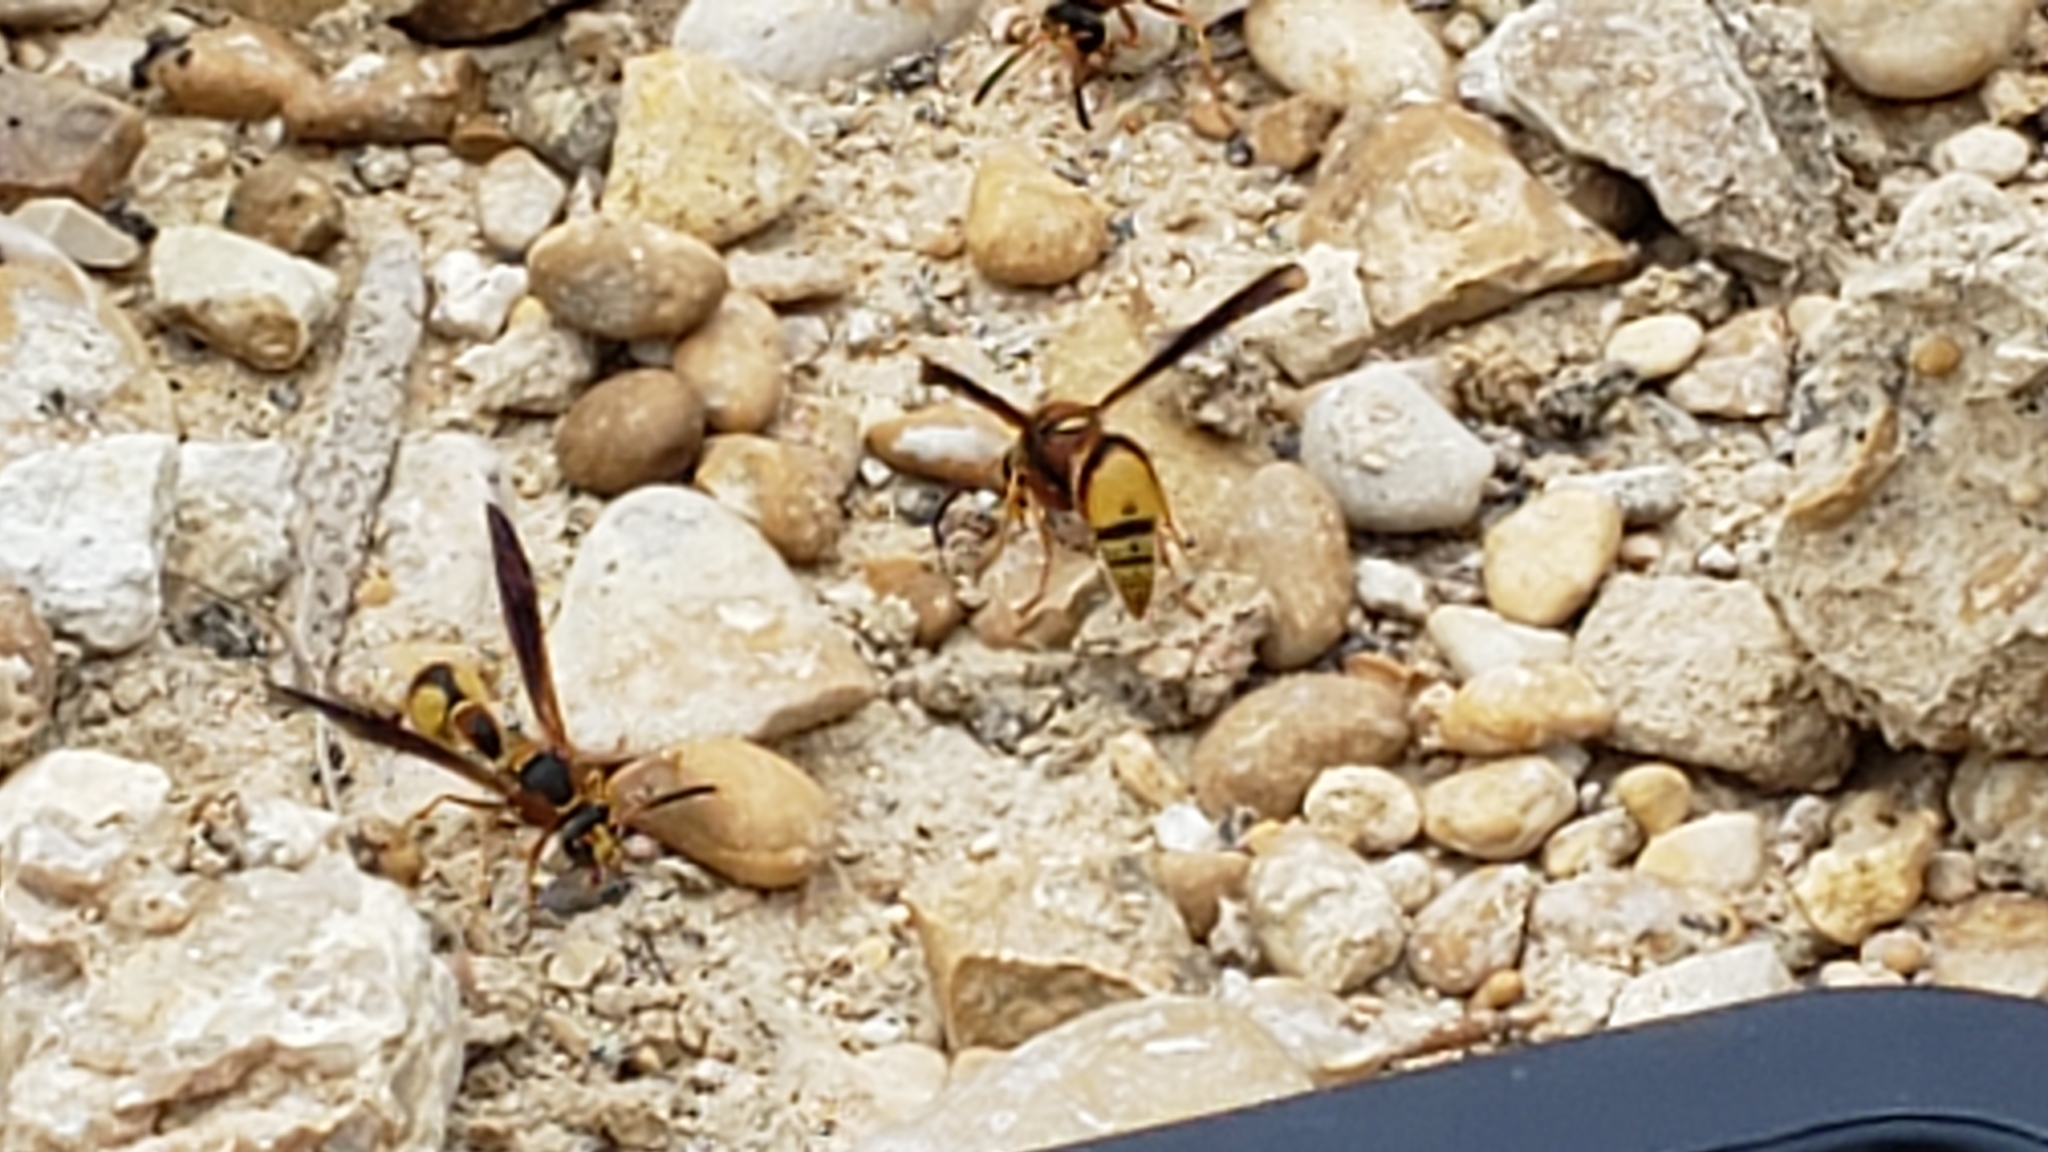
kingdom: Animalia
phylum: Arthropoda
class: Insecta
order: Hymenoptera
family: Vespidae
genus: Eumenes
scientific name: Eumenes bollii
